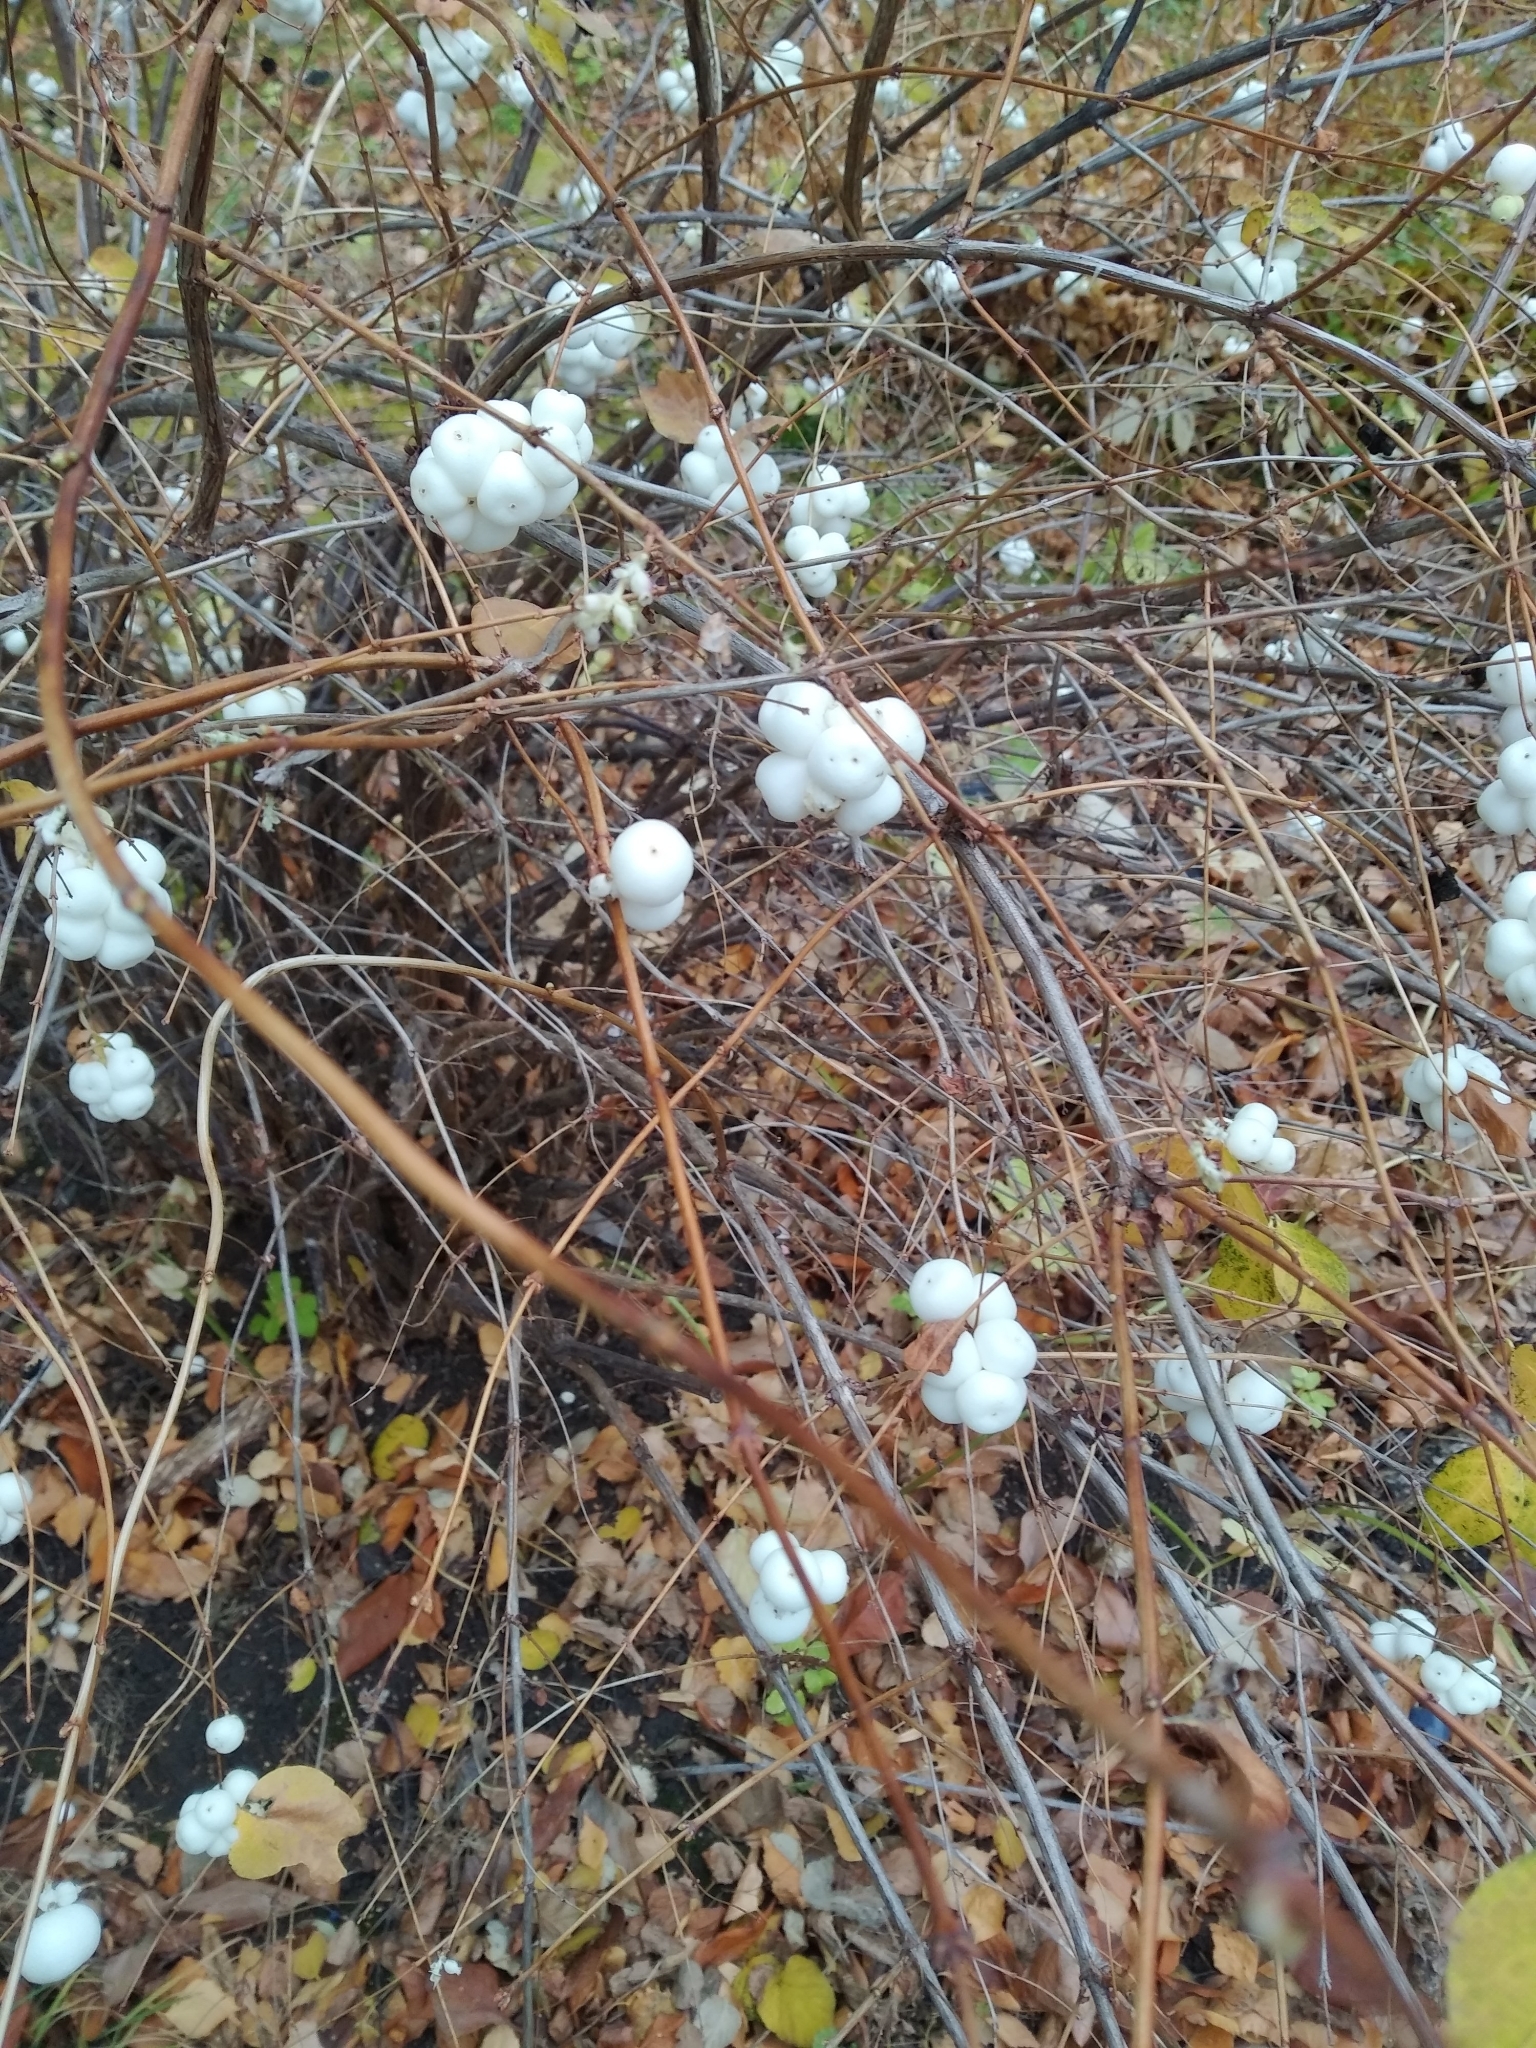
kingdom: Plantae
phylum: Tracheophyta
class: Magnoliopsida
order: Dipsacales
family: Caprifoliaceae
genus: Symphoricarpos
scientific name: Symphoricarpos albus
